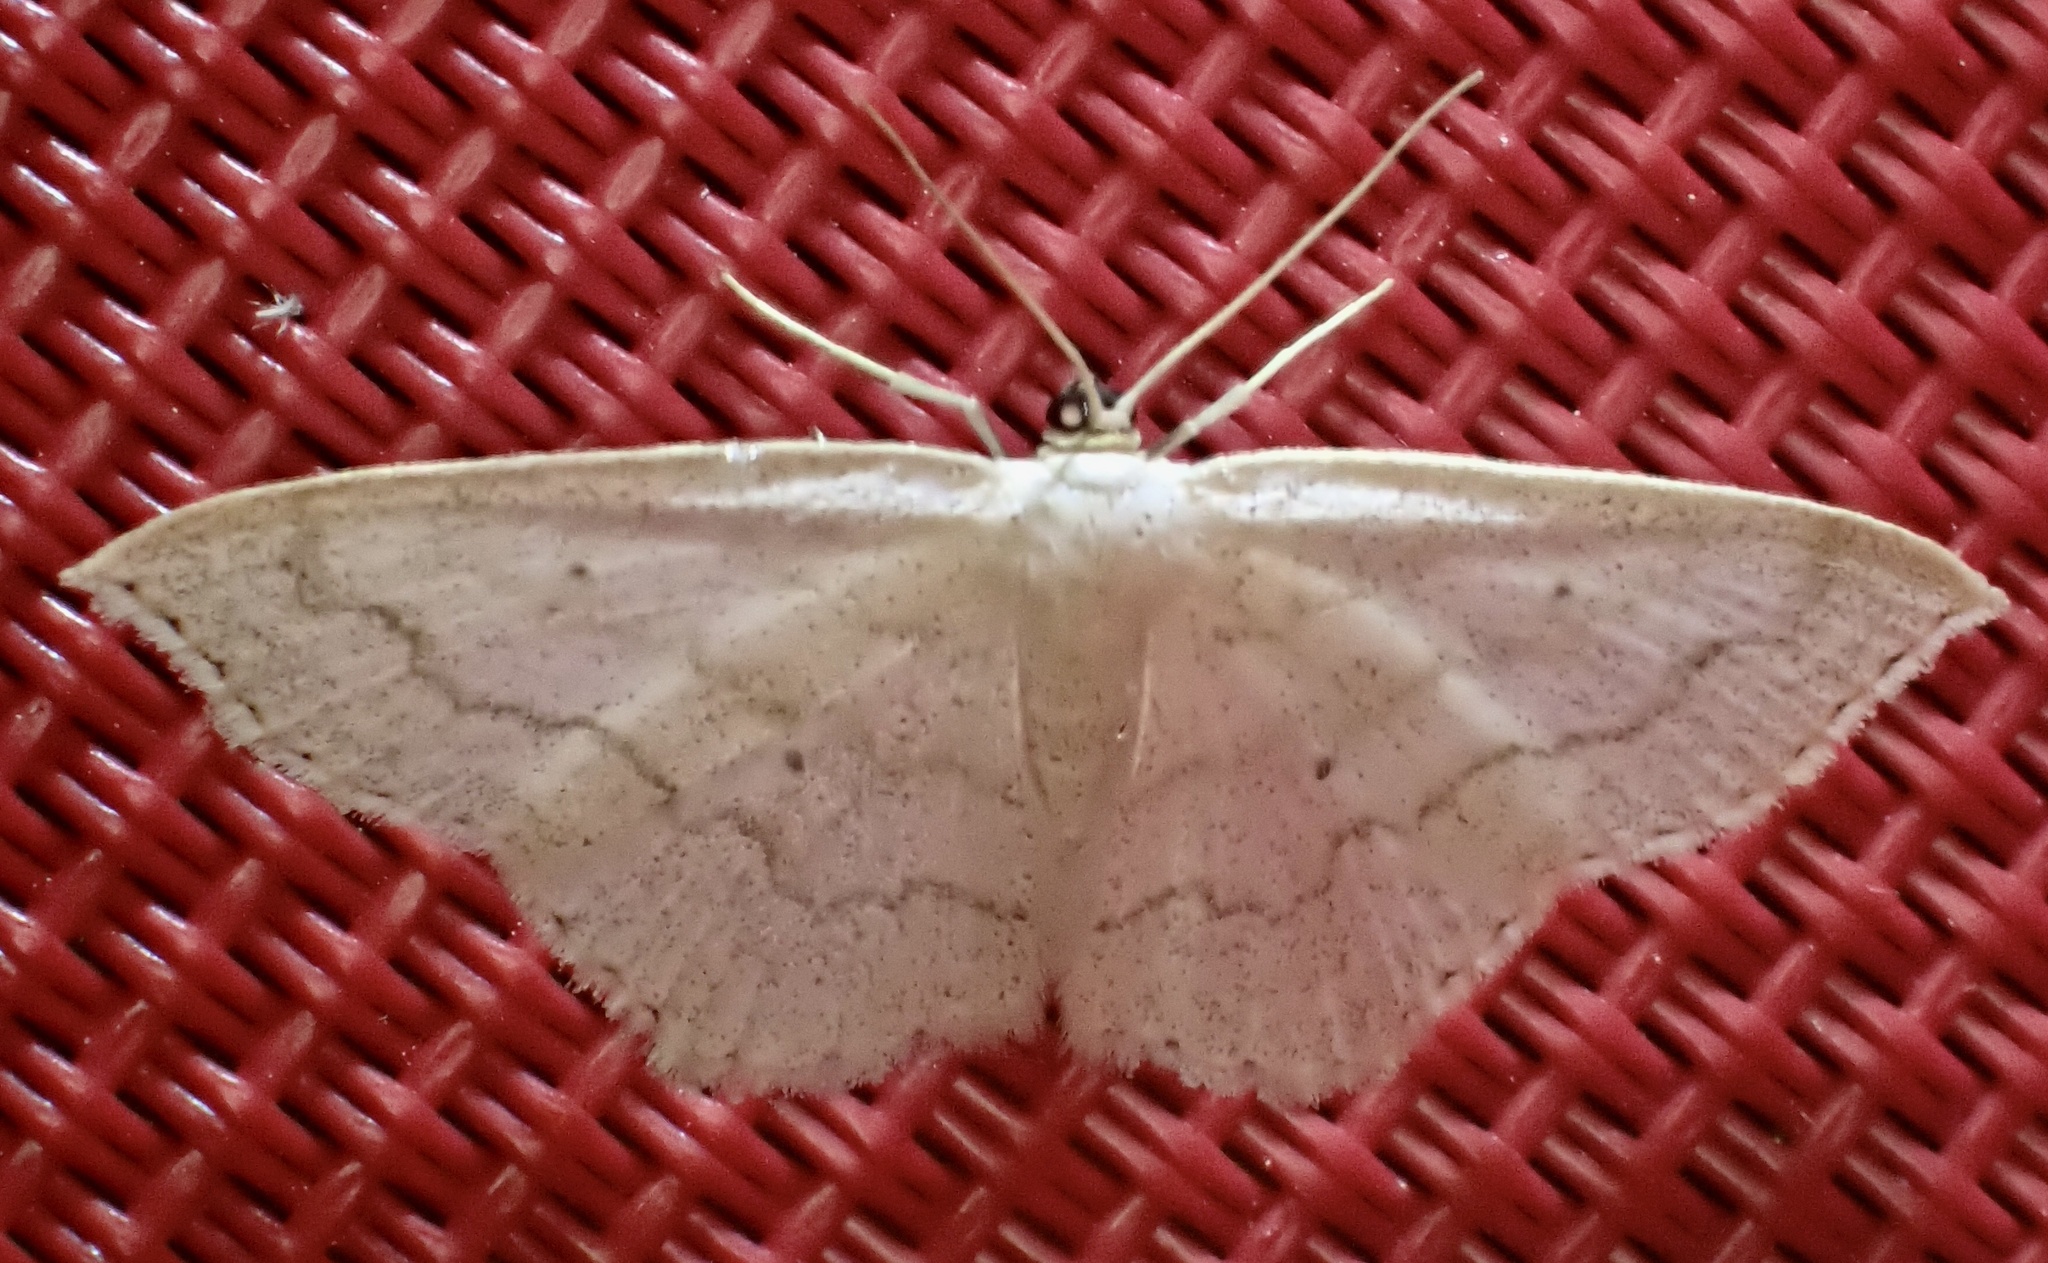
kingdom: Animalia
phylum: Arthropoda
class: Insecta
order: Lepidoptera
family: Geometridae
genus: Scopula
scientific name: Scopula limboundata
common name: Large lace border
